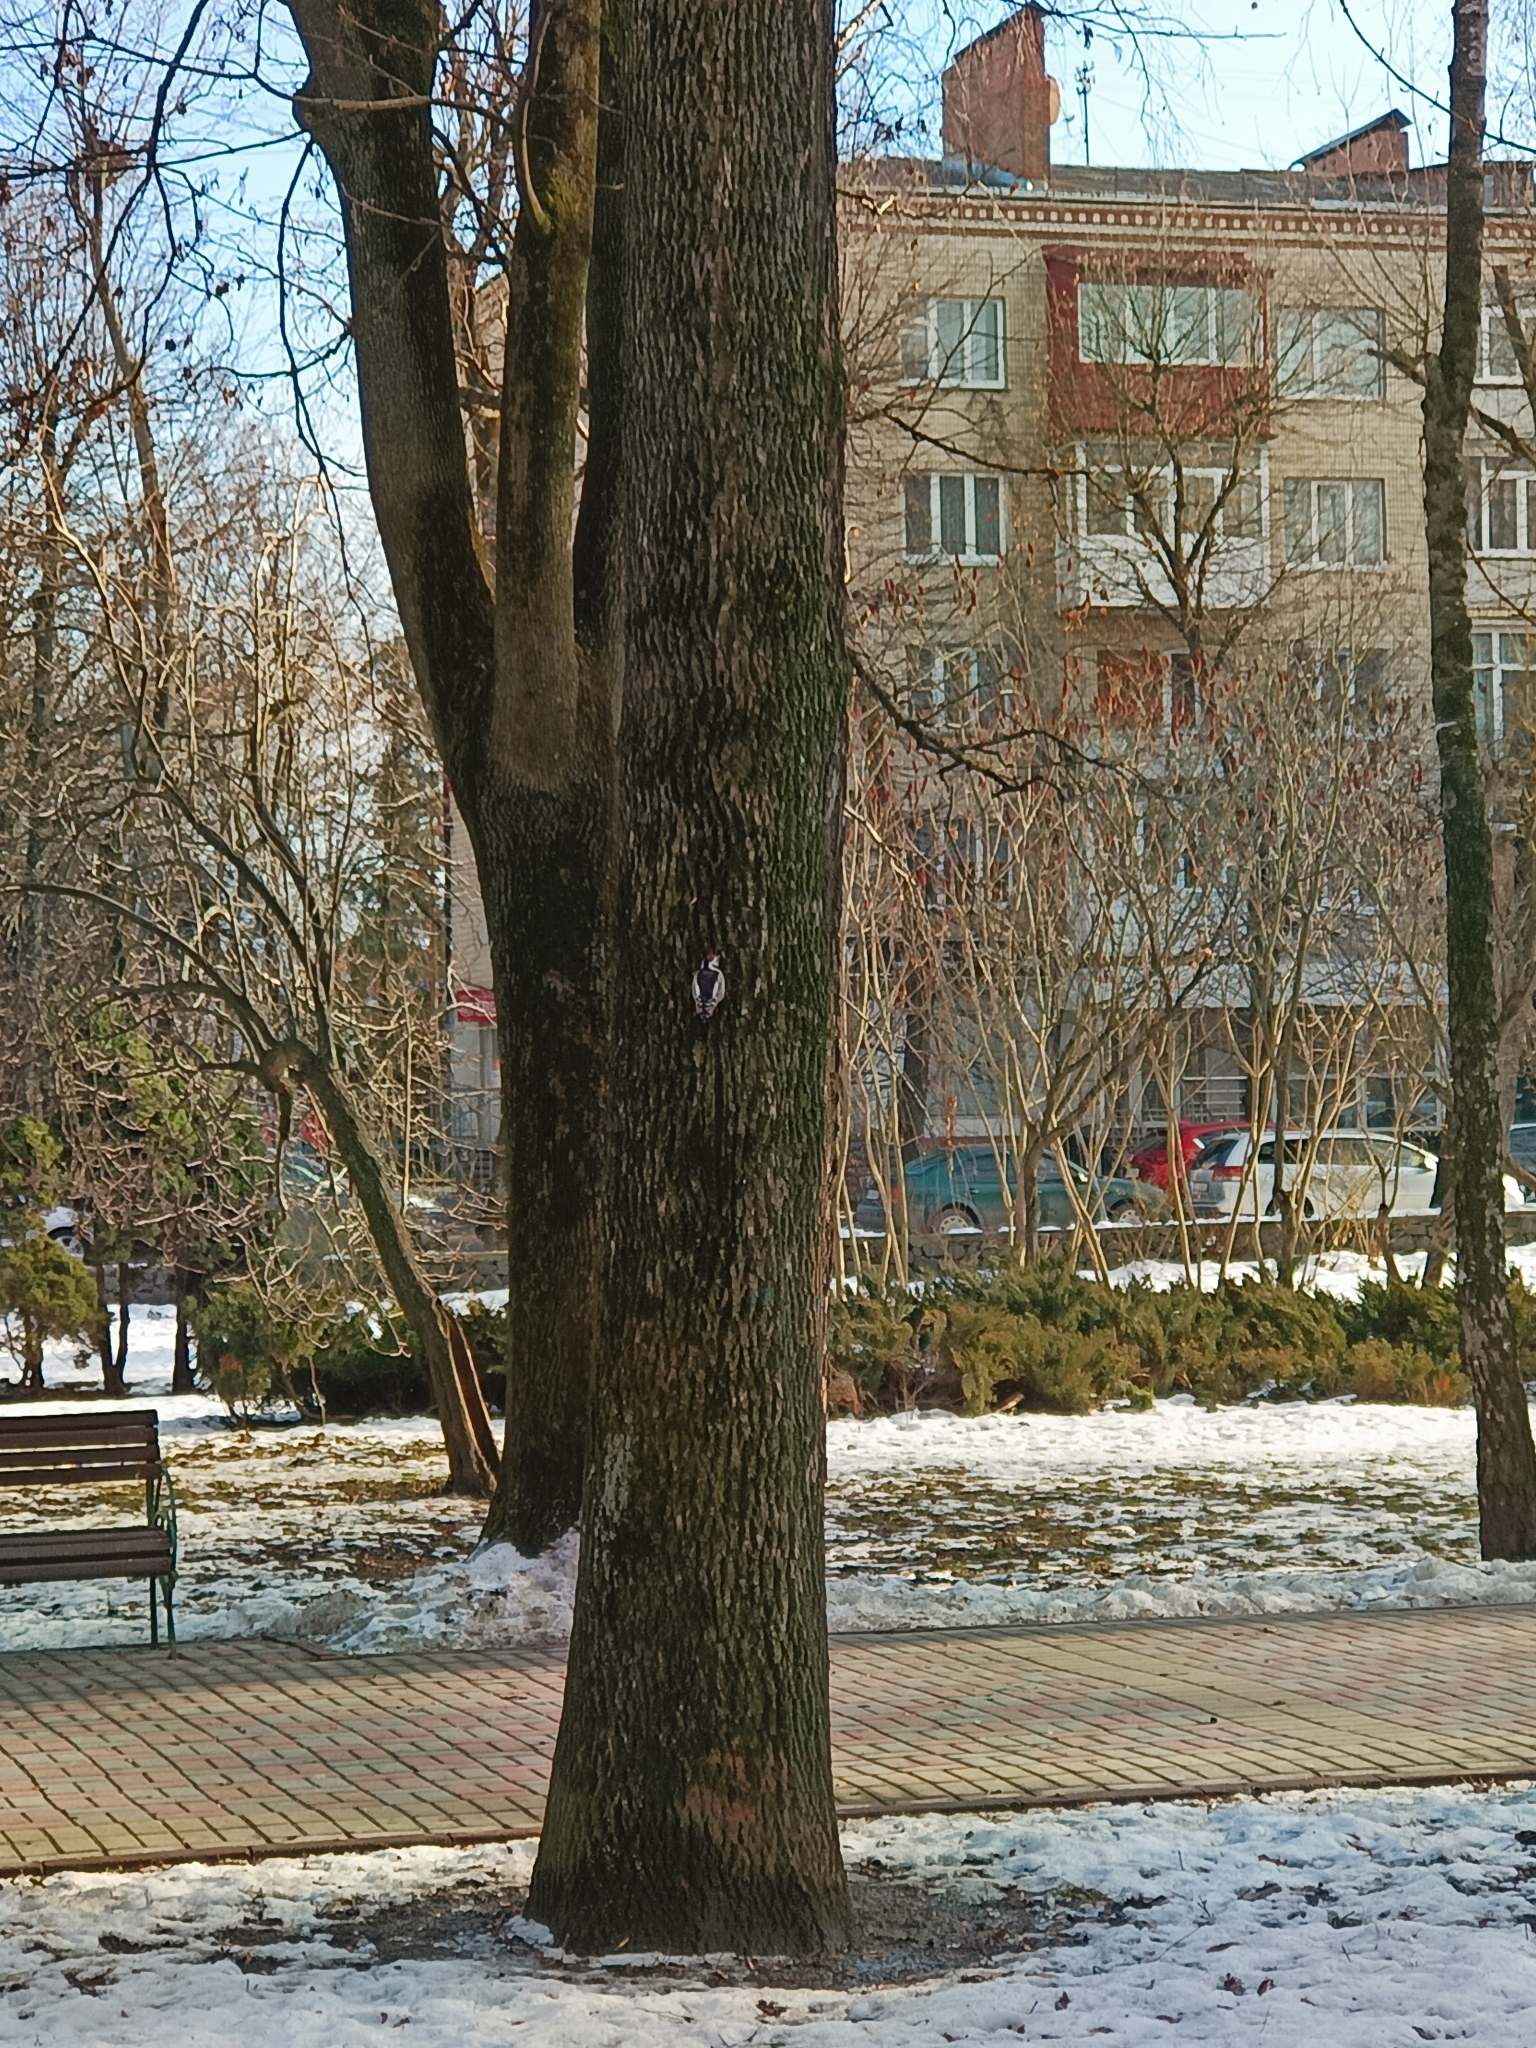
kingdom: Animalia
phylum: Chordata
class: Aves
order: Piciformes
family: Picidae
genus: Dendrocoptes
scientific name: Dendrocoptes medius
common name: Middle spotted woodpecker
